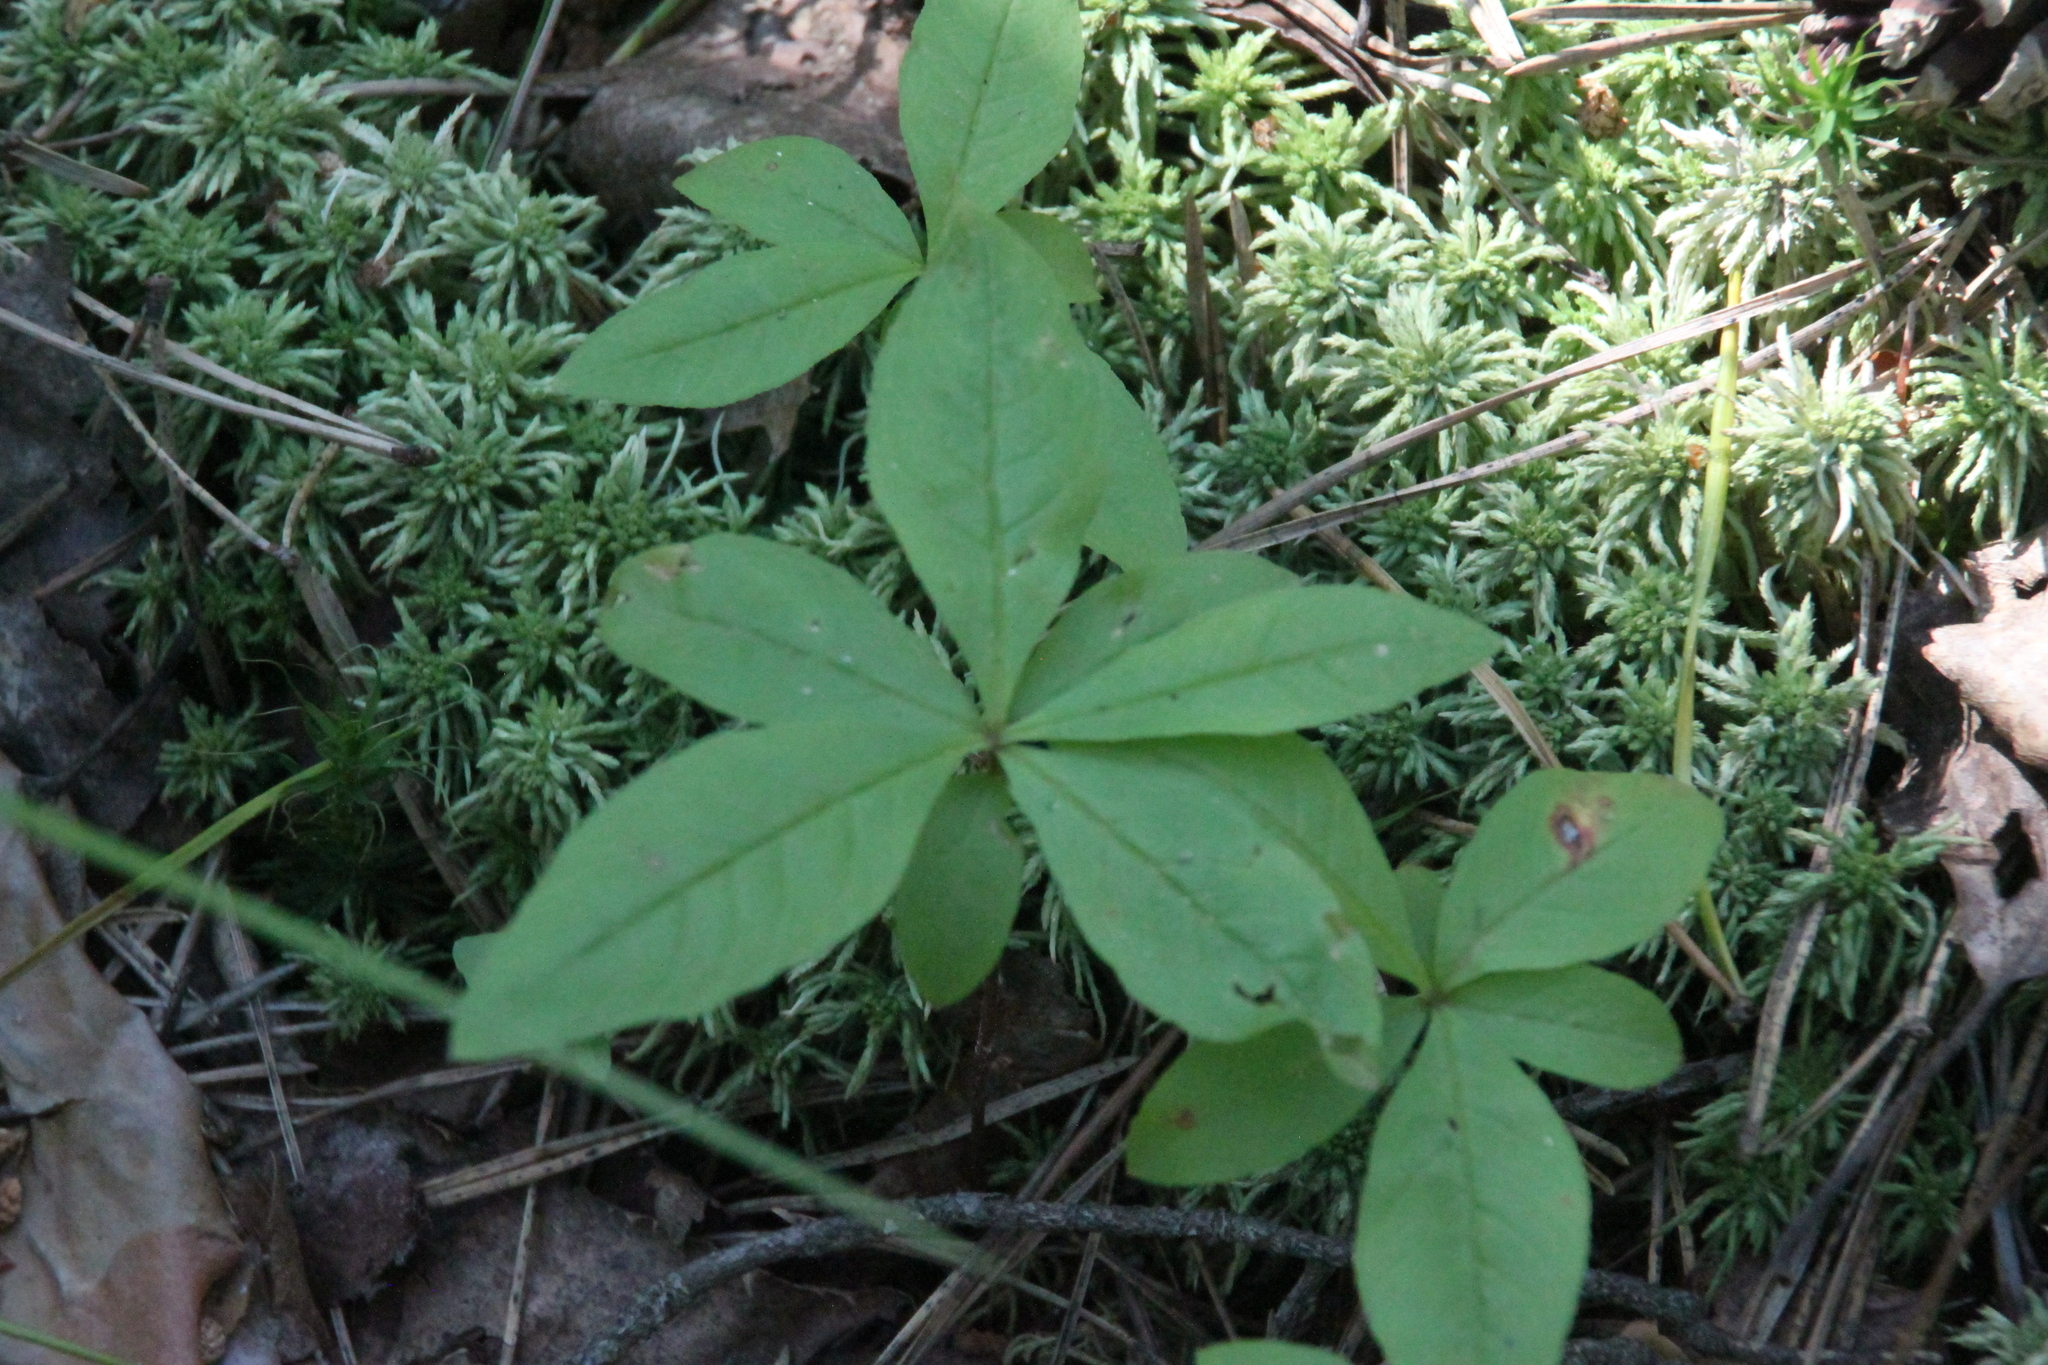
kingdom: Plantae
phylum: Tracheophyta
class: Magnoliopsida
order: Ericales
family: Primulaceae
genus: Lysimachia
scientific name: Lysimachia europaea
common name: Arctic starflower
